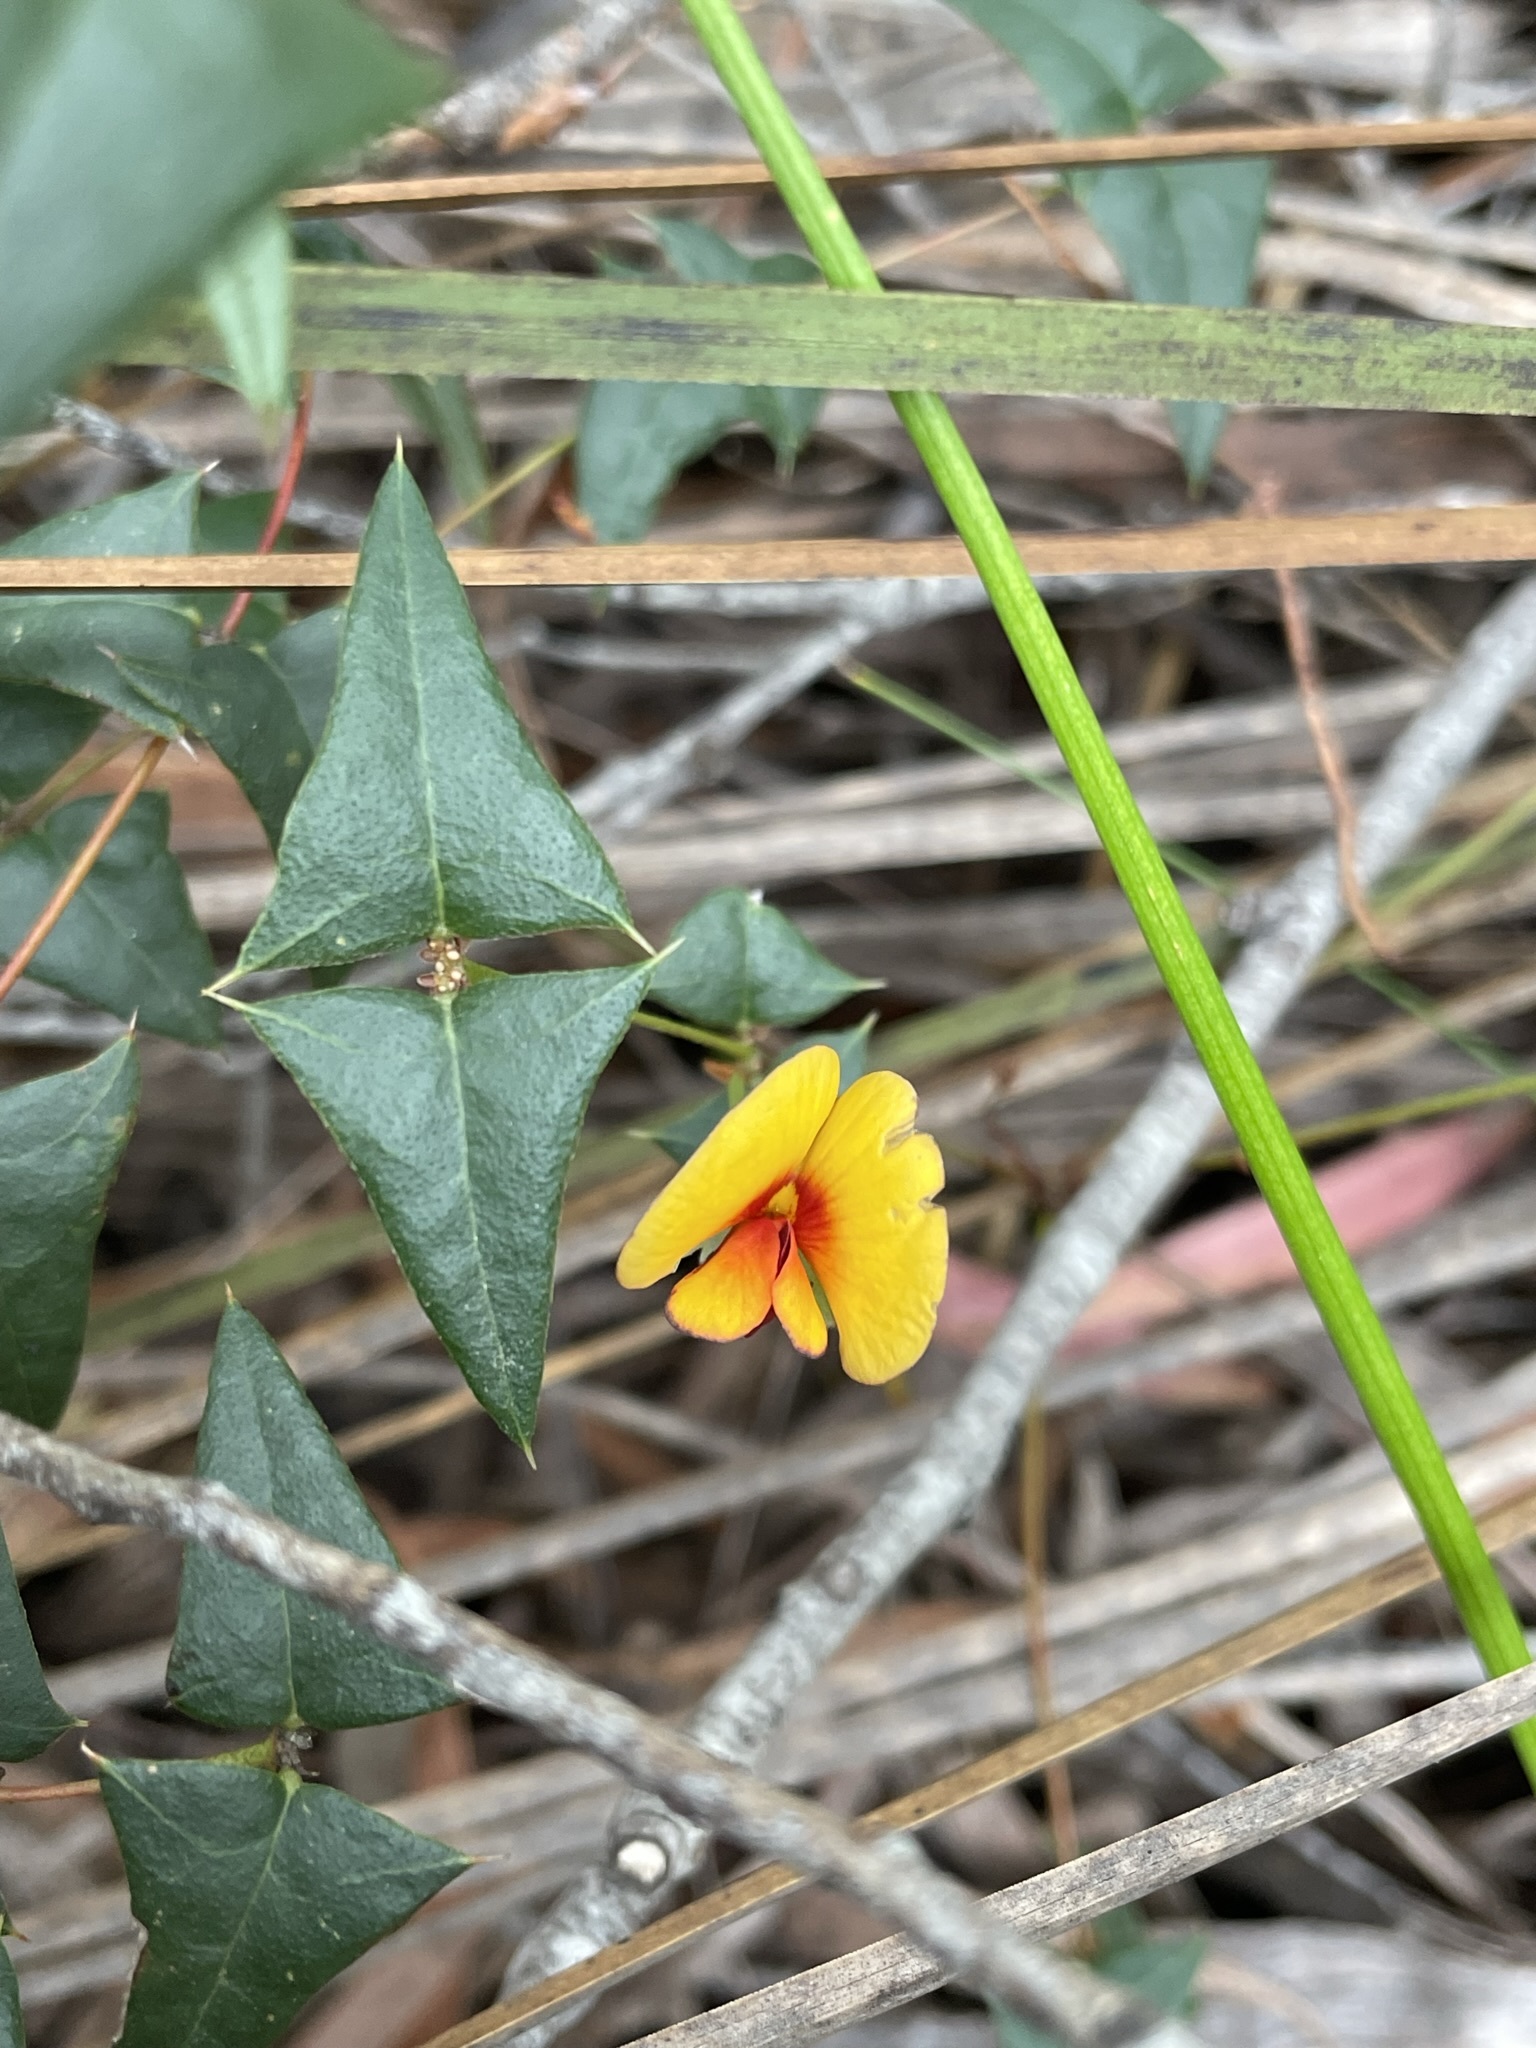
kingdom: Plantae
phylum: Tracheophyta
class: Magnoliopsida
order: Fabales
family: Fabaceae
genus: Platylobium
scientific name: Platylobium obtusangulum
